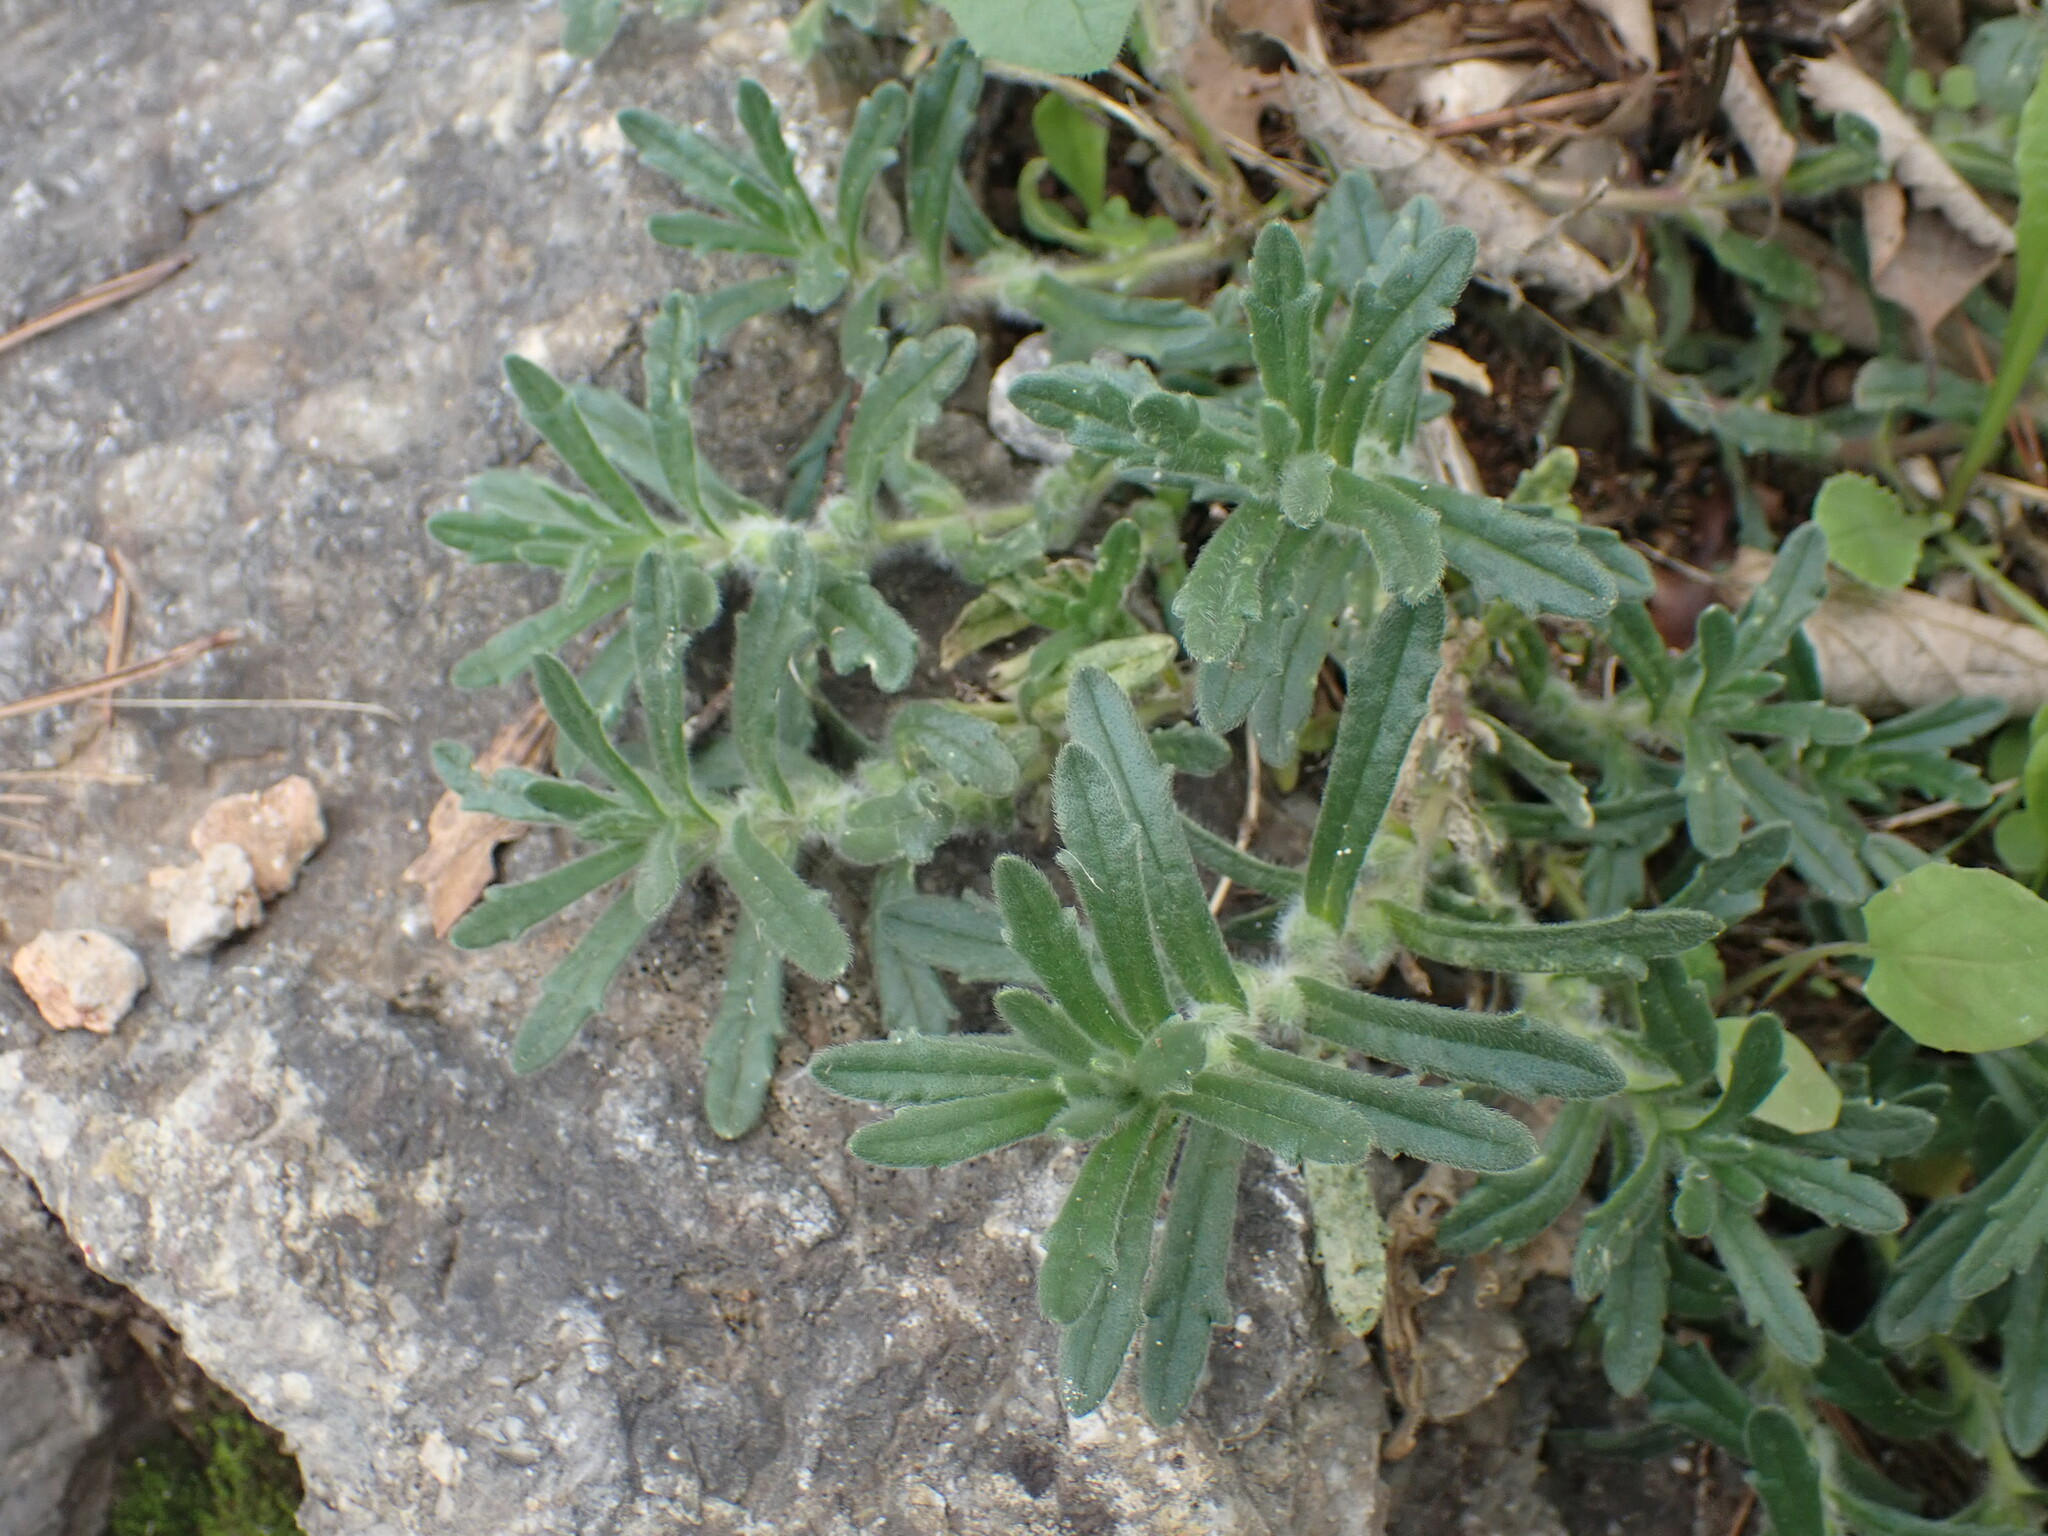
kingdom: Plantae
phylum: Tracheophyta
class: Magnoliopsida
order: Lamiales
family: Lamiaceae
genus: Ajuga
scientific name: Ajuga iva
